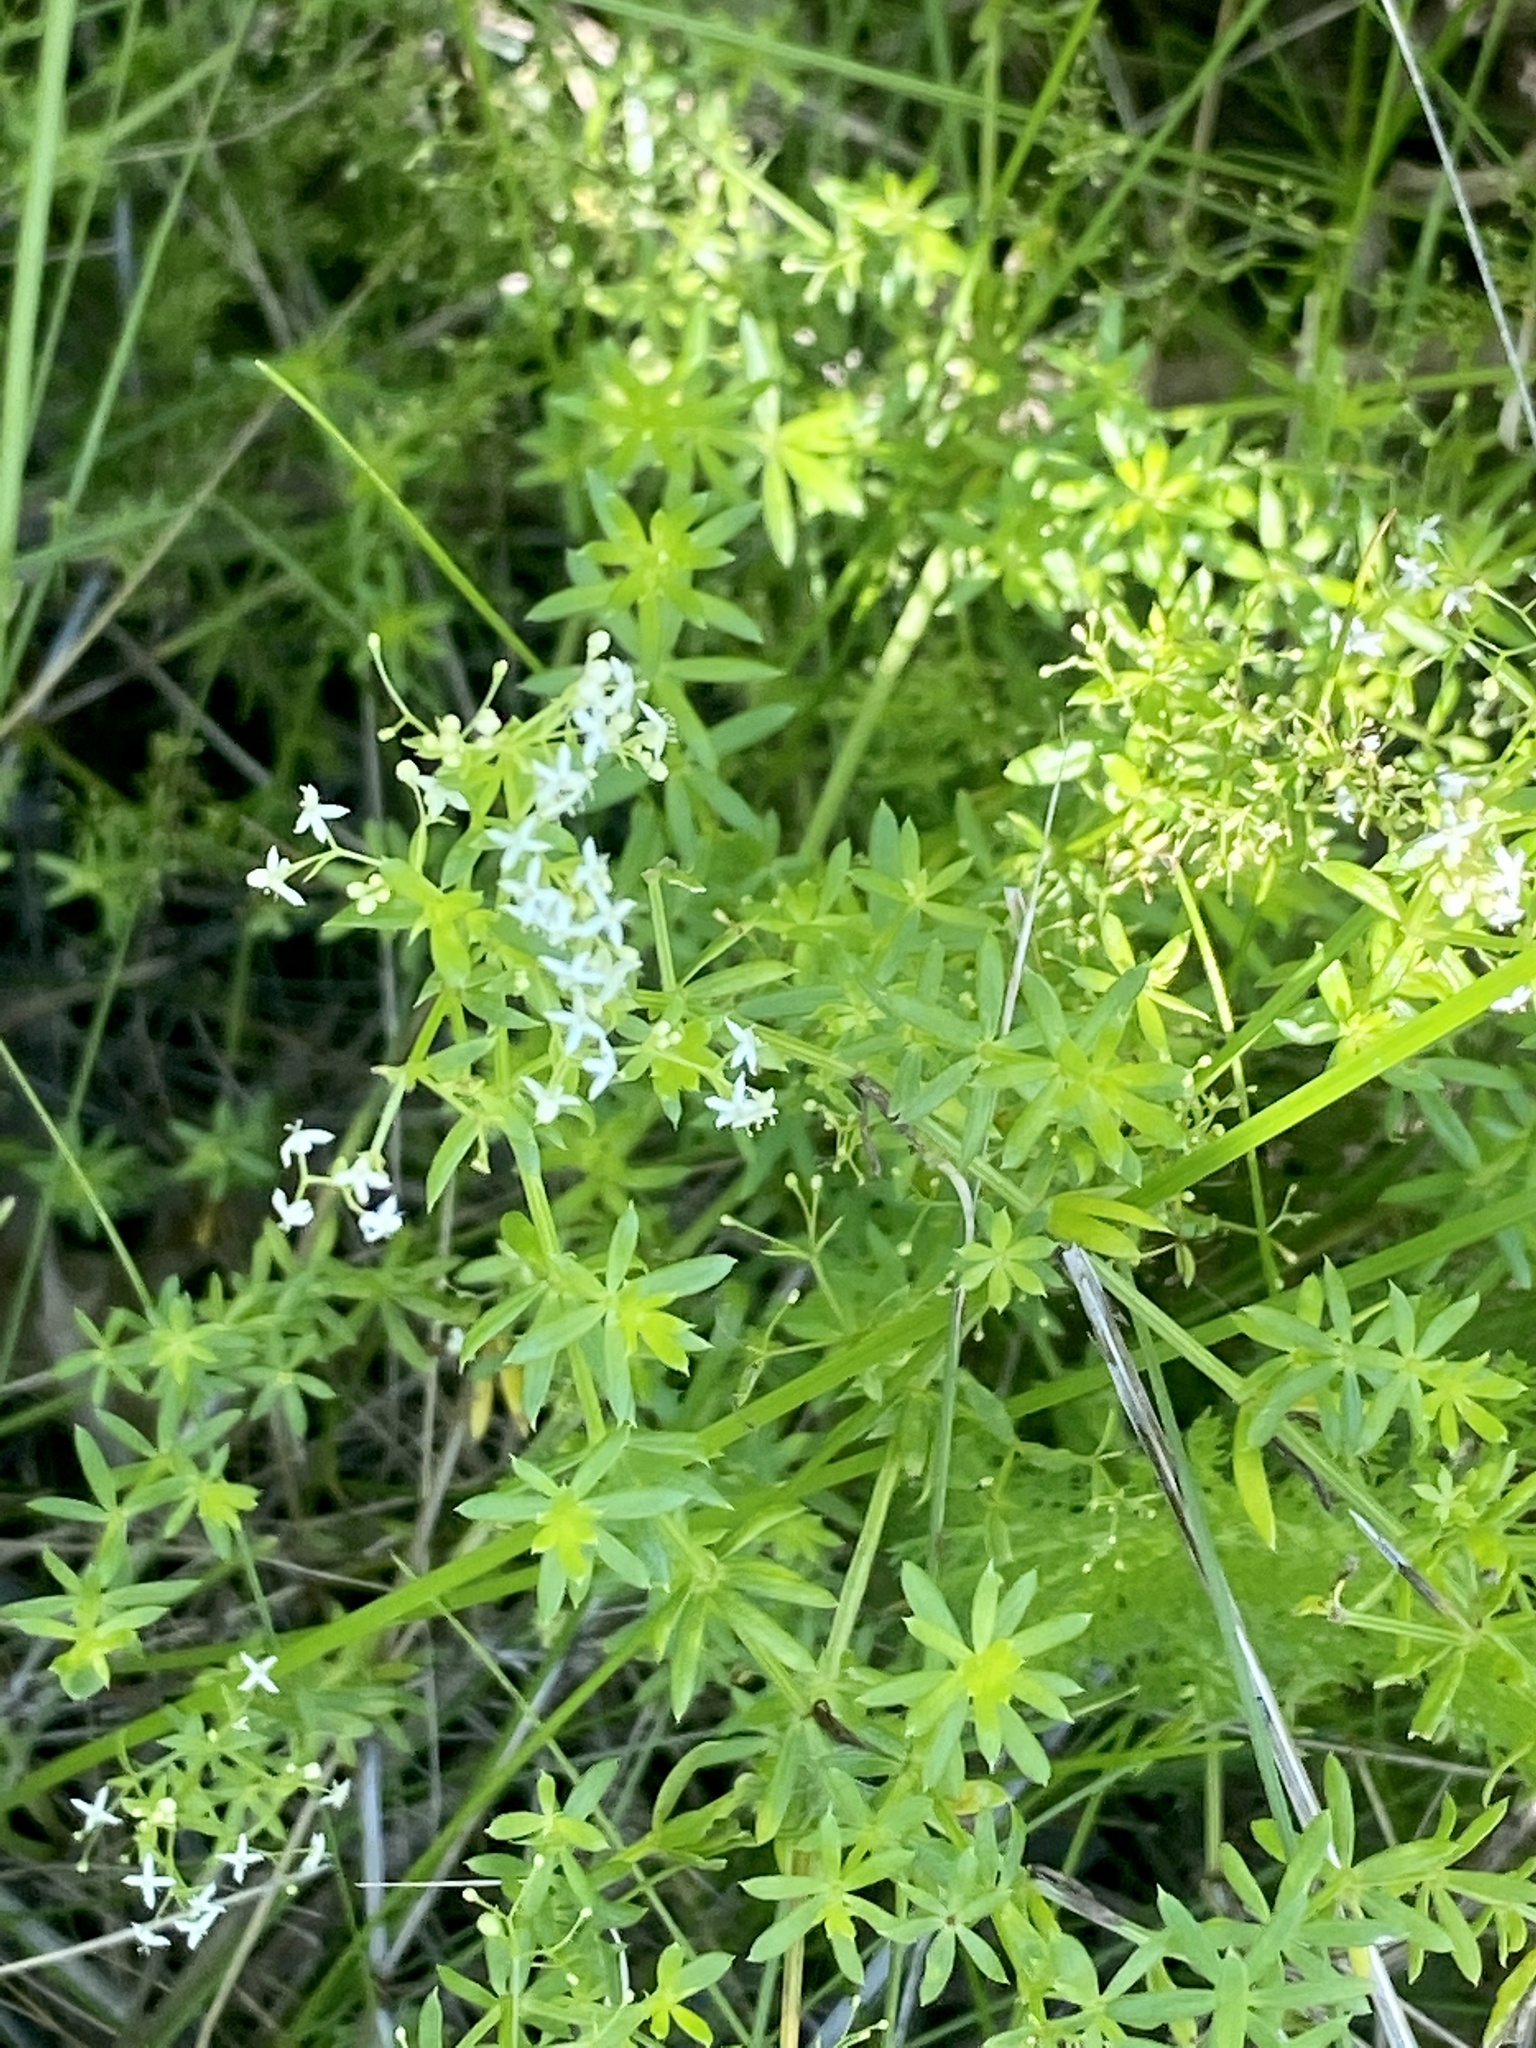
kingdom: Plantae
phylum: Tracheophyta
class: Magnoliopsida
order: Gentianales
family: Rubiaceae
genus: Galium
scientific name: Galium mollugo
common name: Hedge bedstraw
